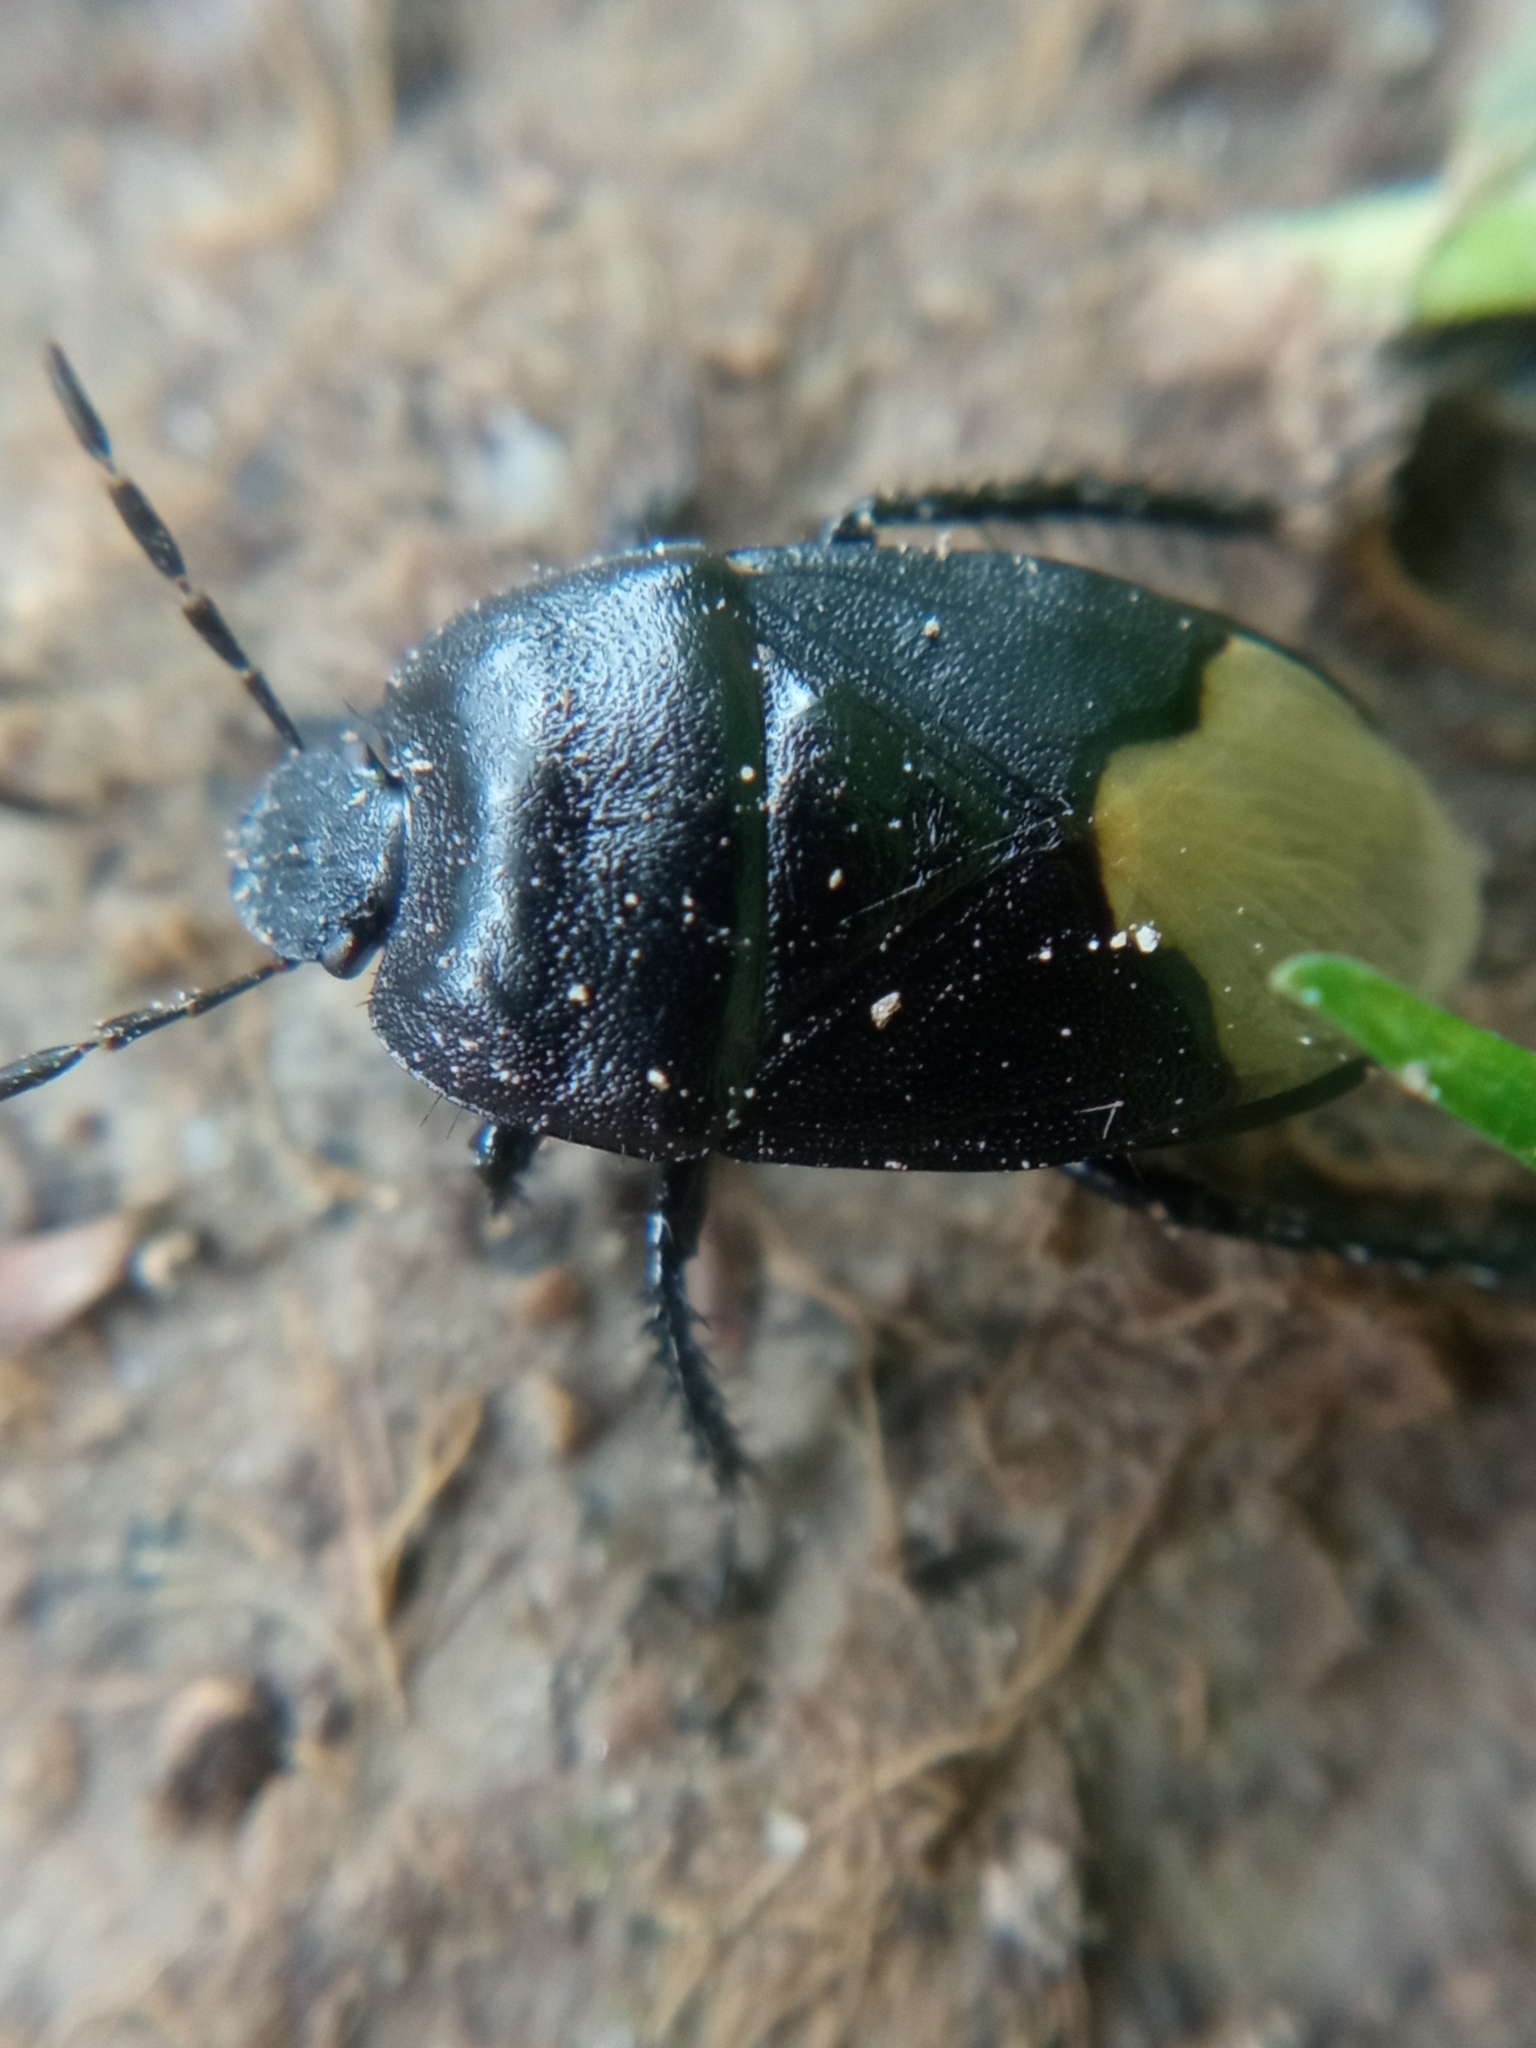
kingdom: Animalia
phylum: Arthropoda
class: Insecta
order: Hemiptera
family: Cydnidae
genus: Cydnus
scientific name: Cydnus aterrimus
